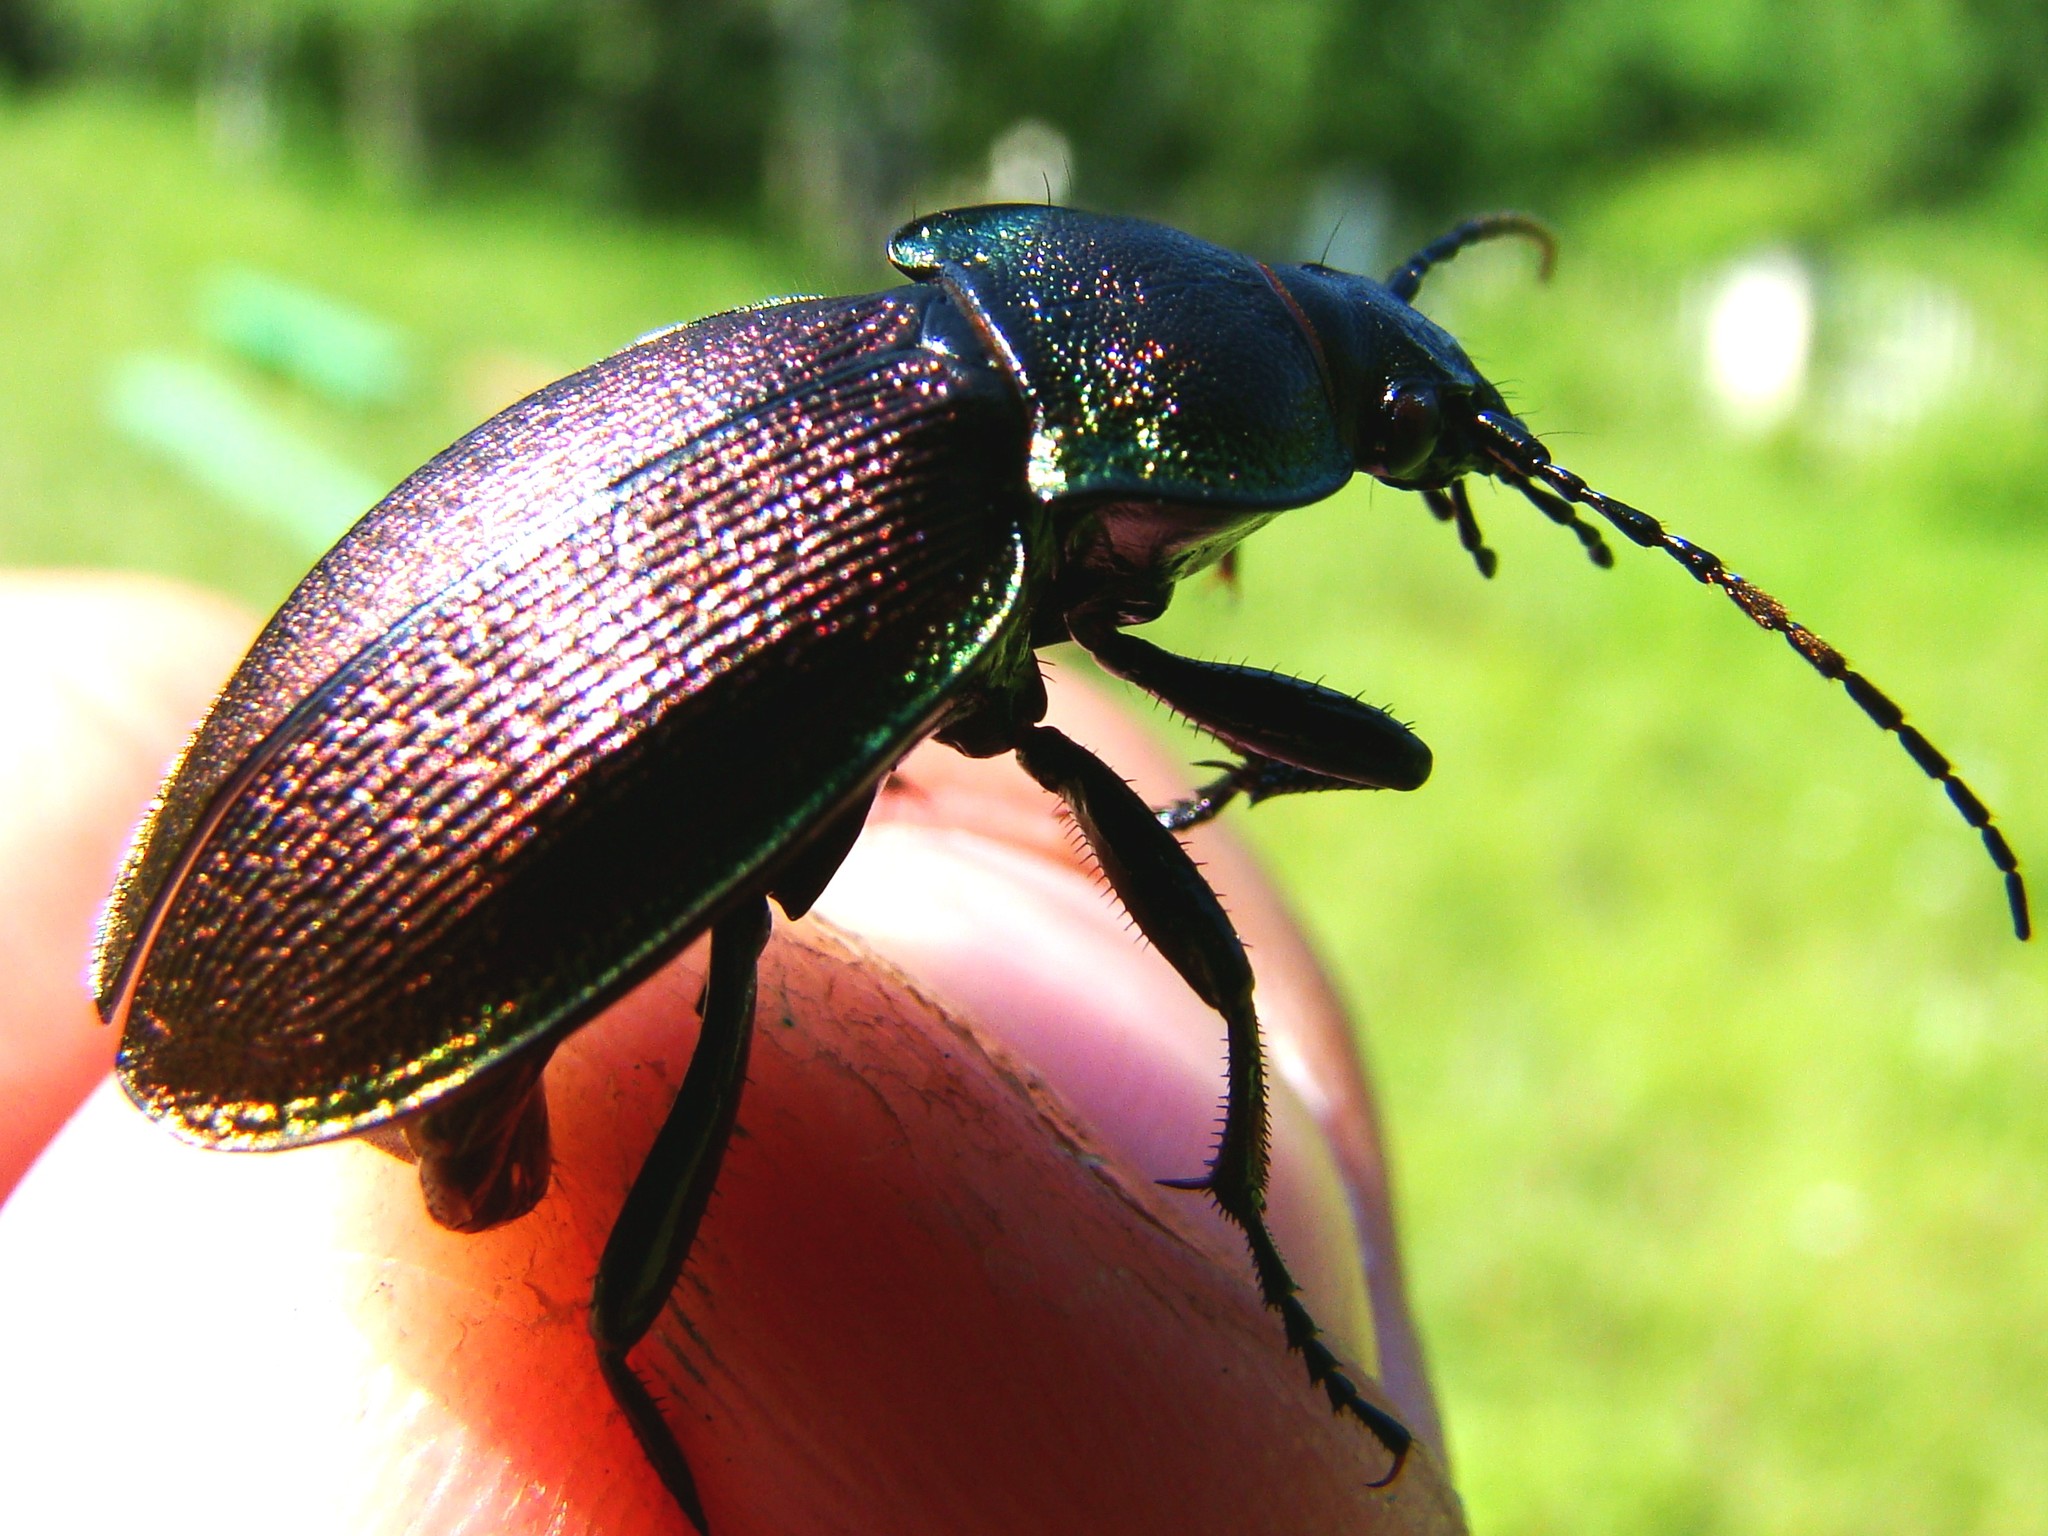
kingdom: Animalia
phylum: Arthropoda
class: Insecta
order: Coleoptera
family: Carabidae
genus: Carabus
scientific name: Carabus regalis
